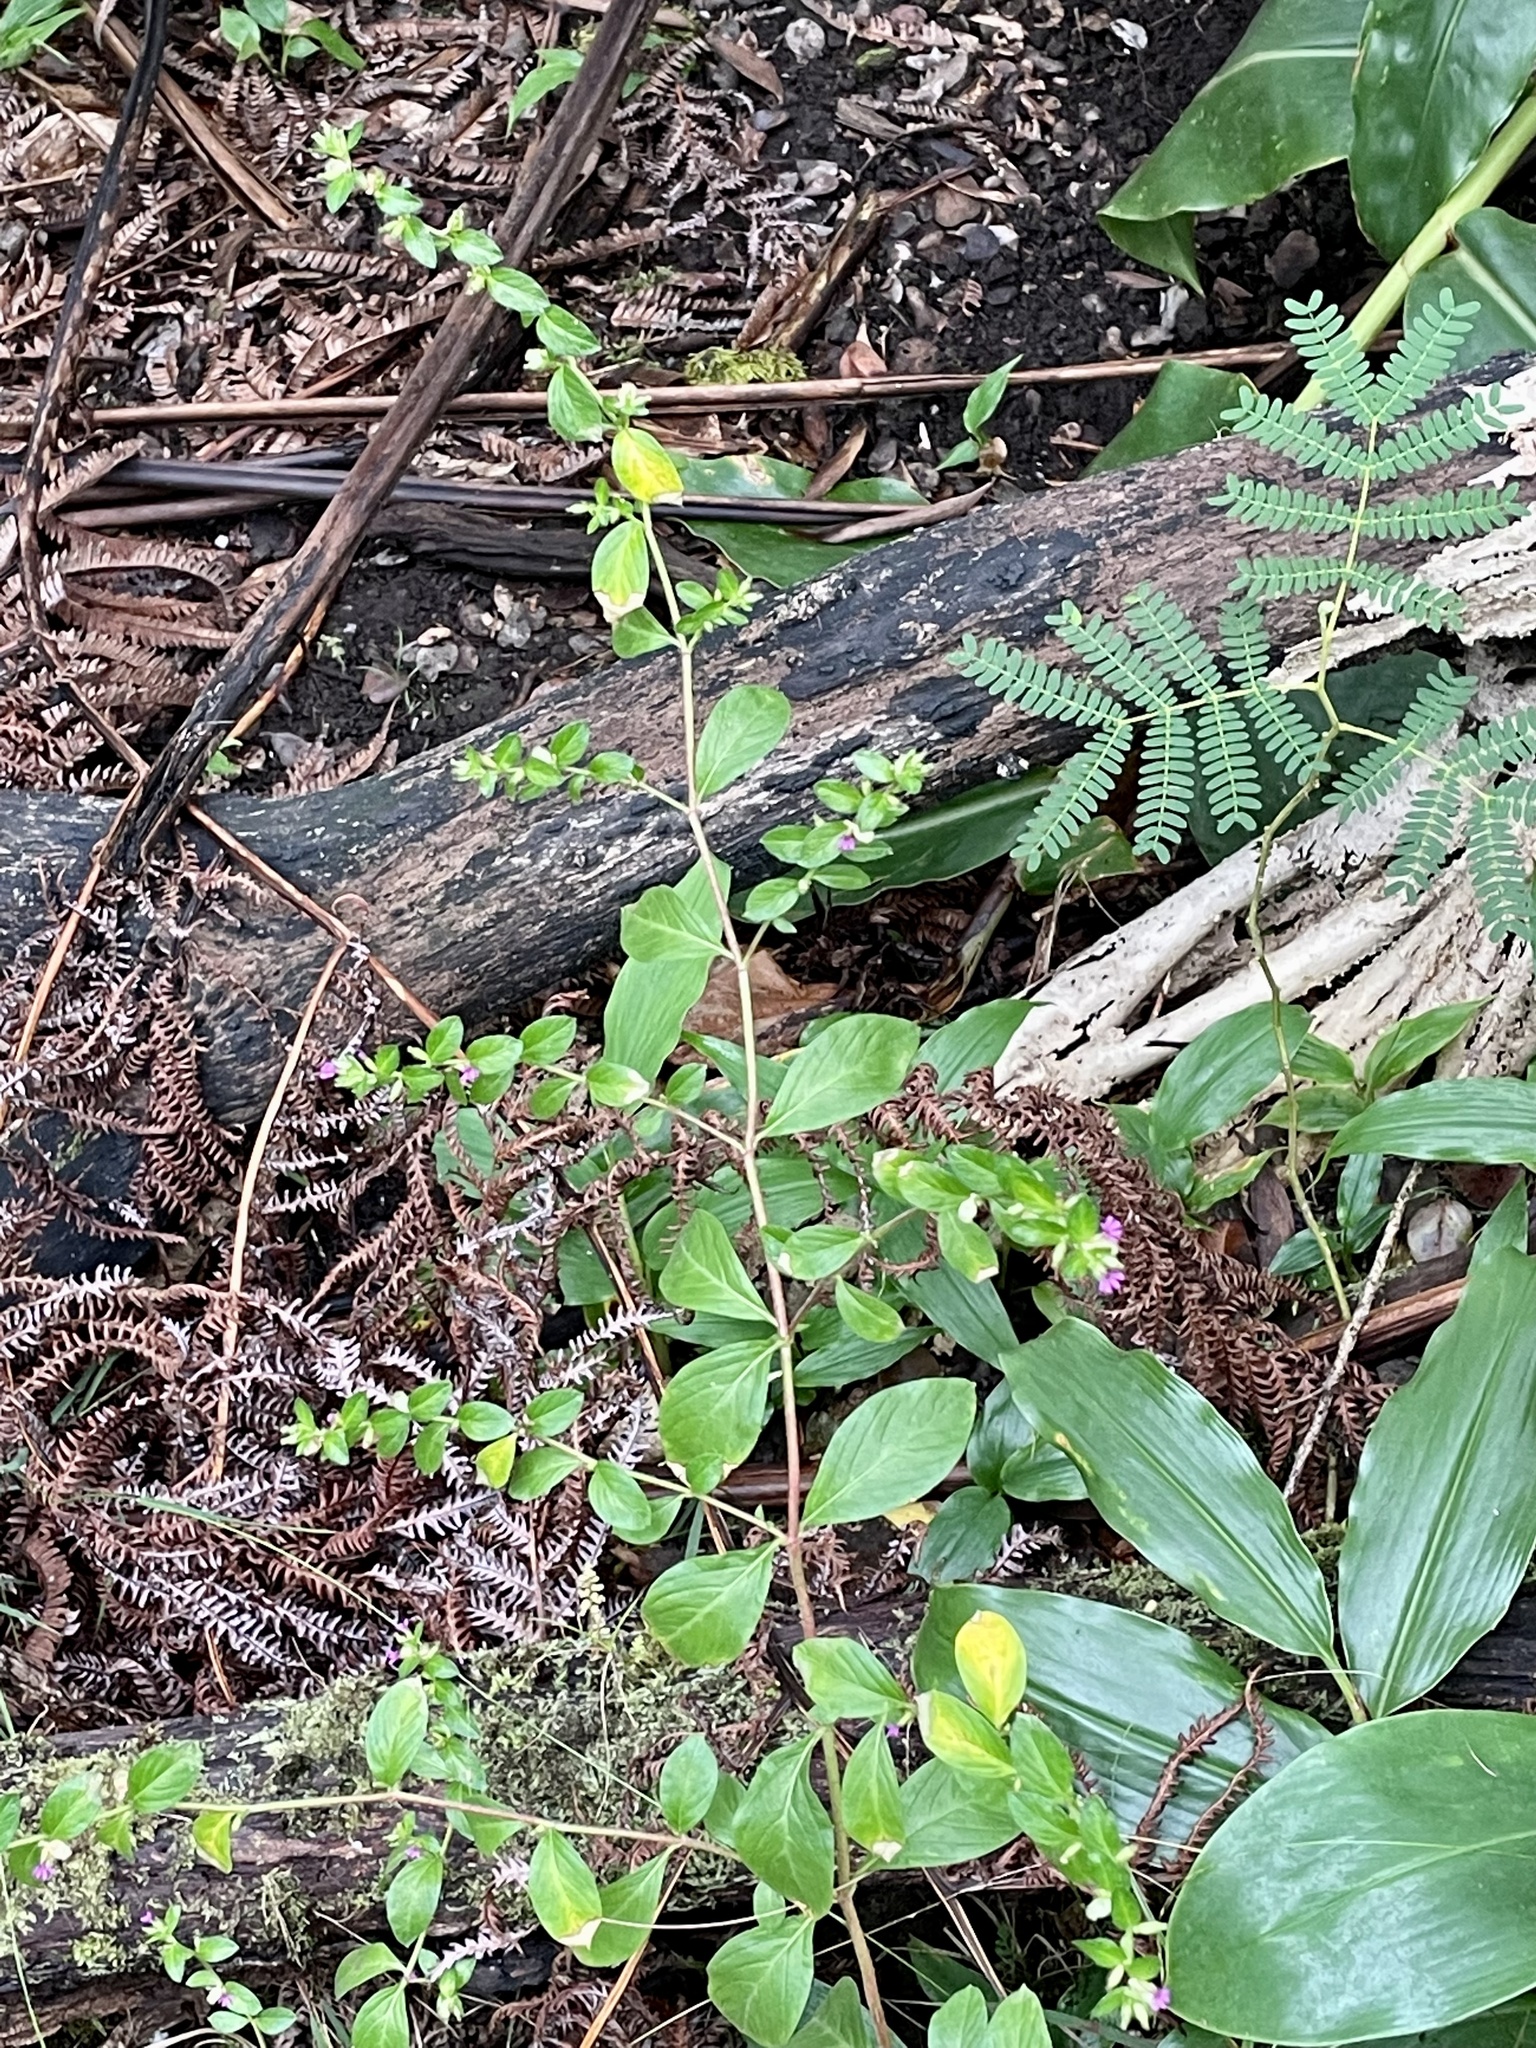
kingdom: Plantae
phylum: Tracheophyta
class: Magnoliopsida
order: Myrtales
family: Lythraceae
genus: Cuphea
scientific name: Cuphea carthagenensis
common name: Colombian waxweed
